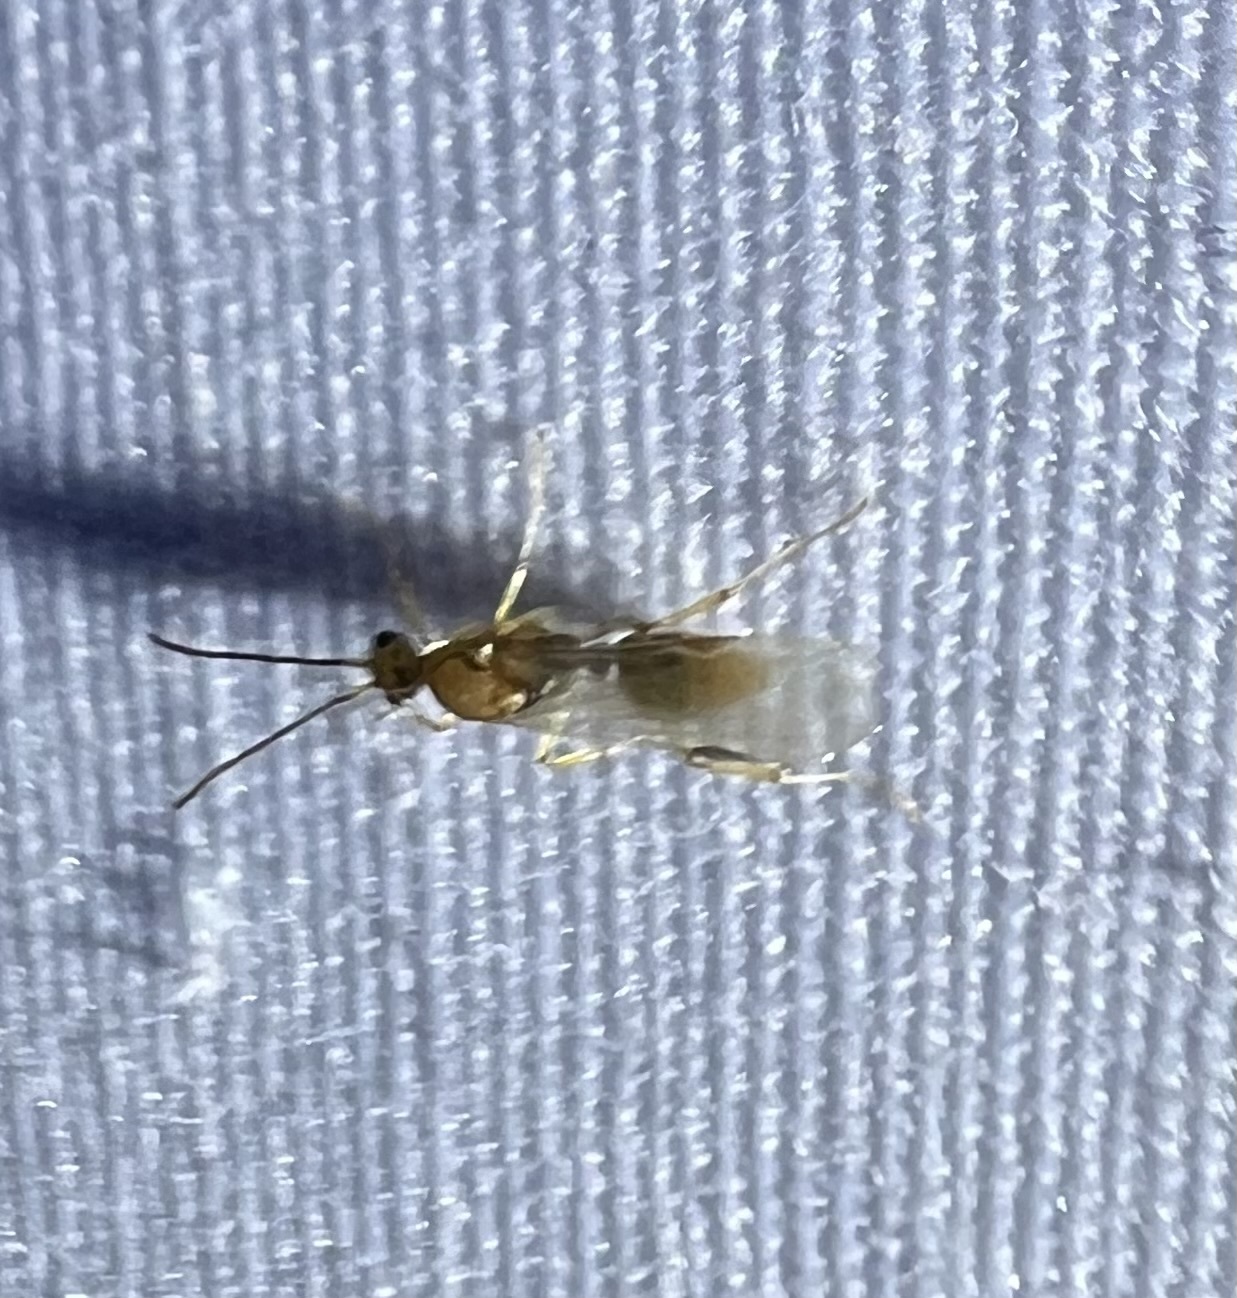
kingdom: Animalia
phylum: Arthropoda
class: Insecta
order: Hymenoptera
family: Formicidae
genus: Pachycondyla
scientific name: Pachycondyla chinensis
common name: Asian needle ant
